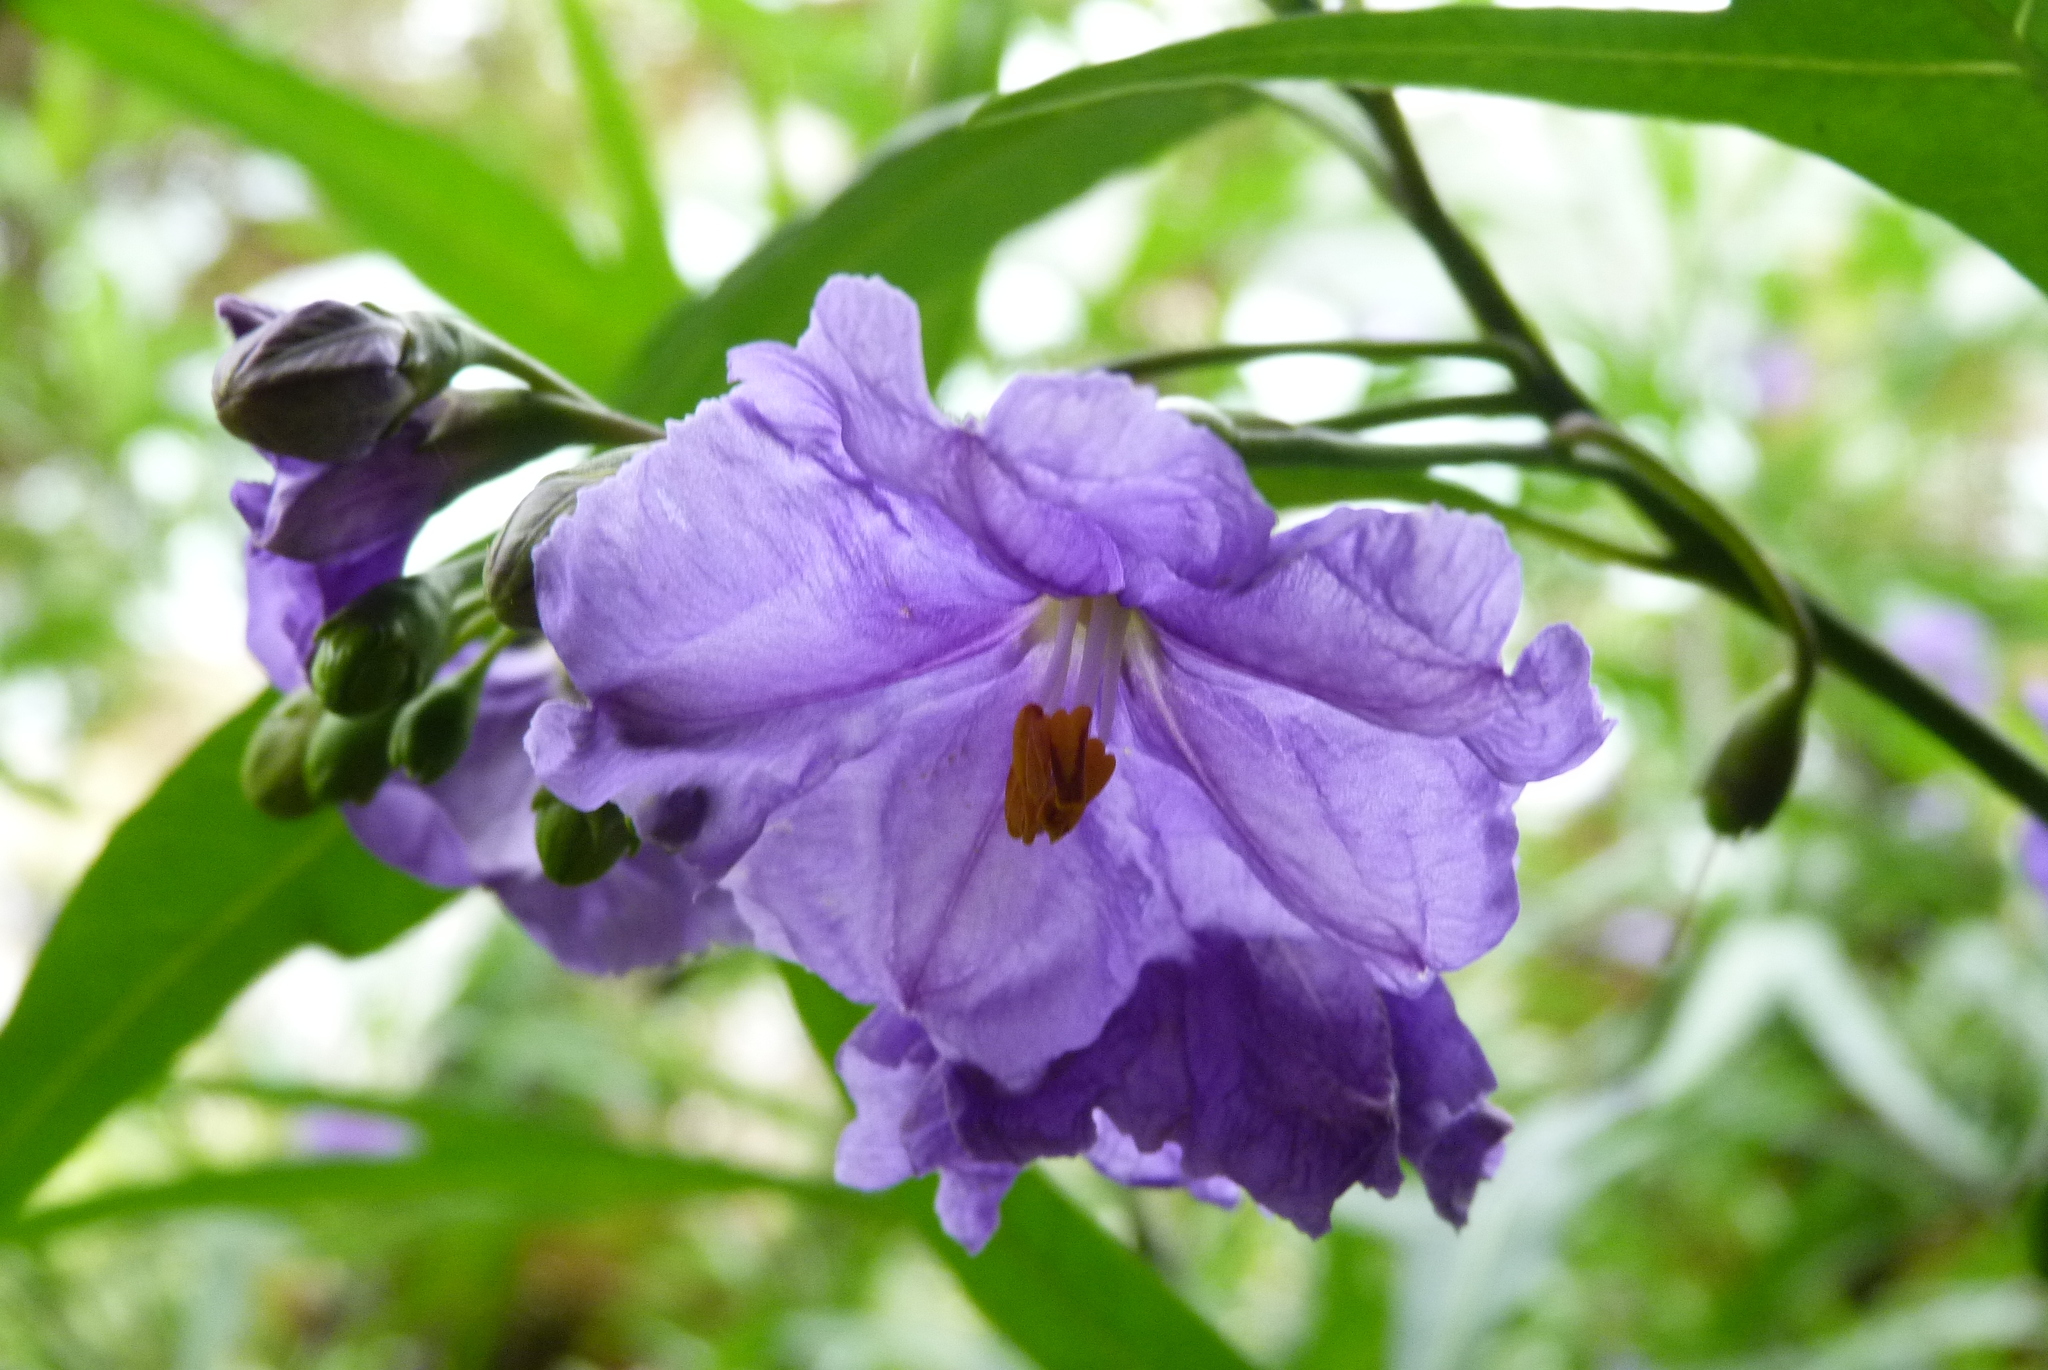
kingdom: Plantae
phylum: Tracheophyta
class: Magnoliopsida
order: Solanales
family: Solanaceae
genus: Solanum
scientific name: Solanum laciniatum
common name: Kangaroo-apple
